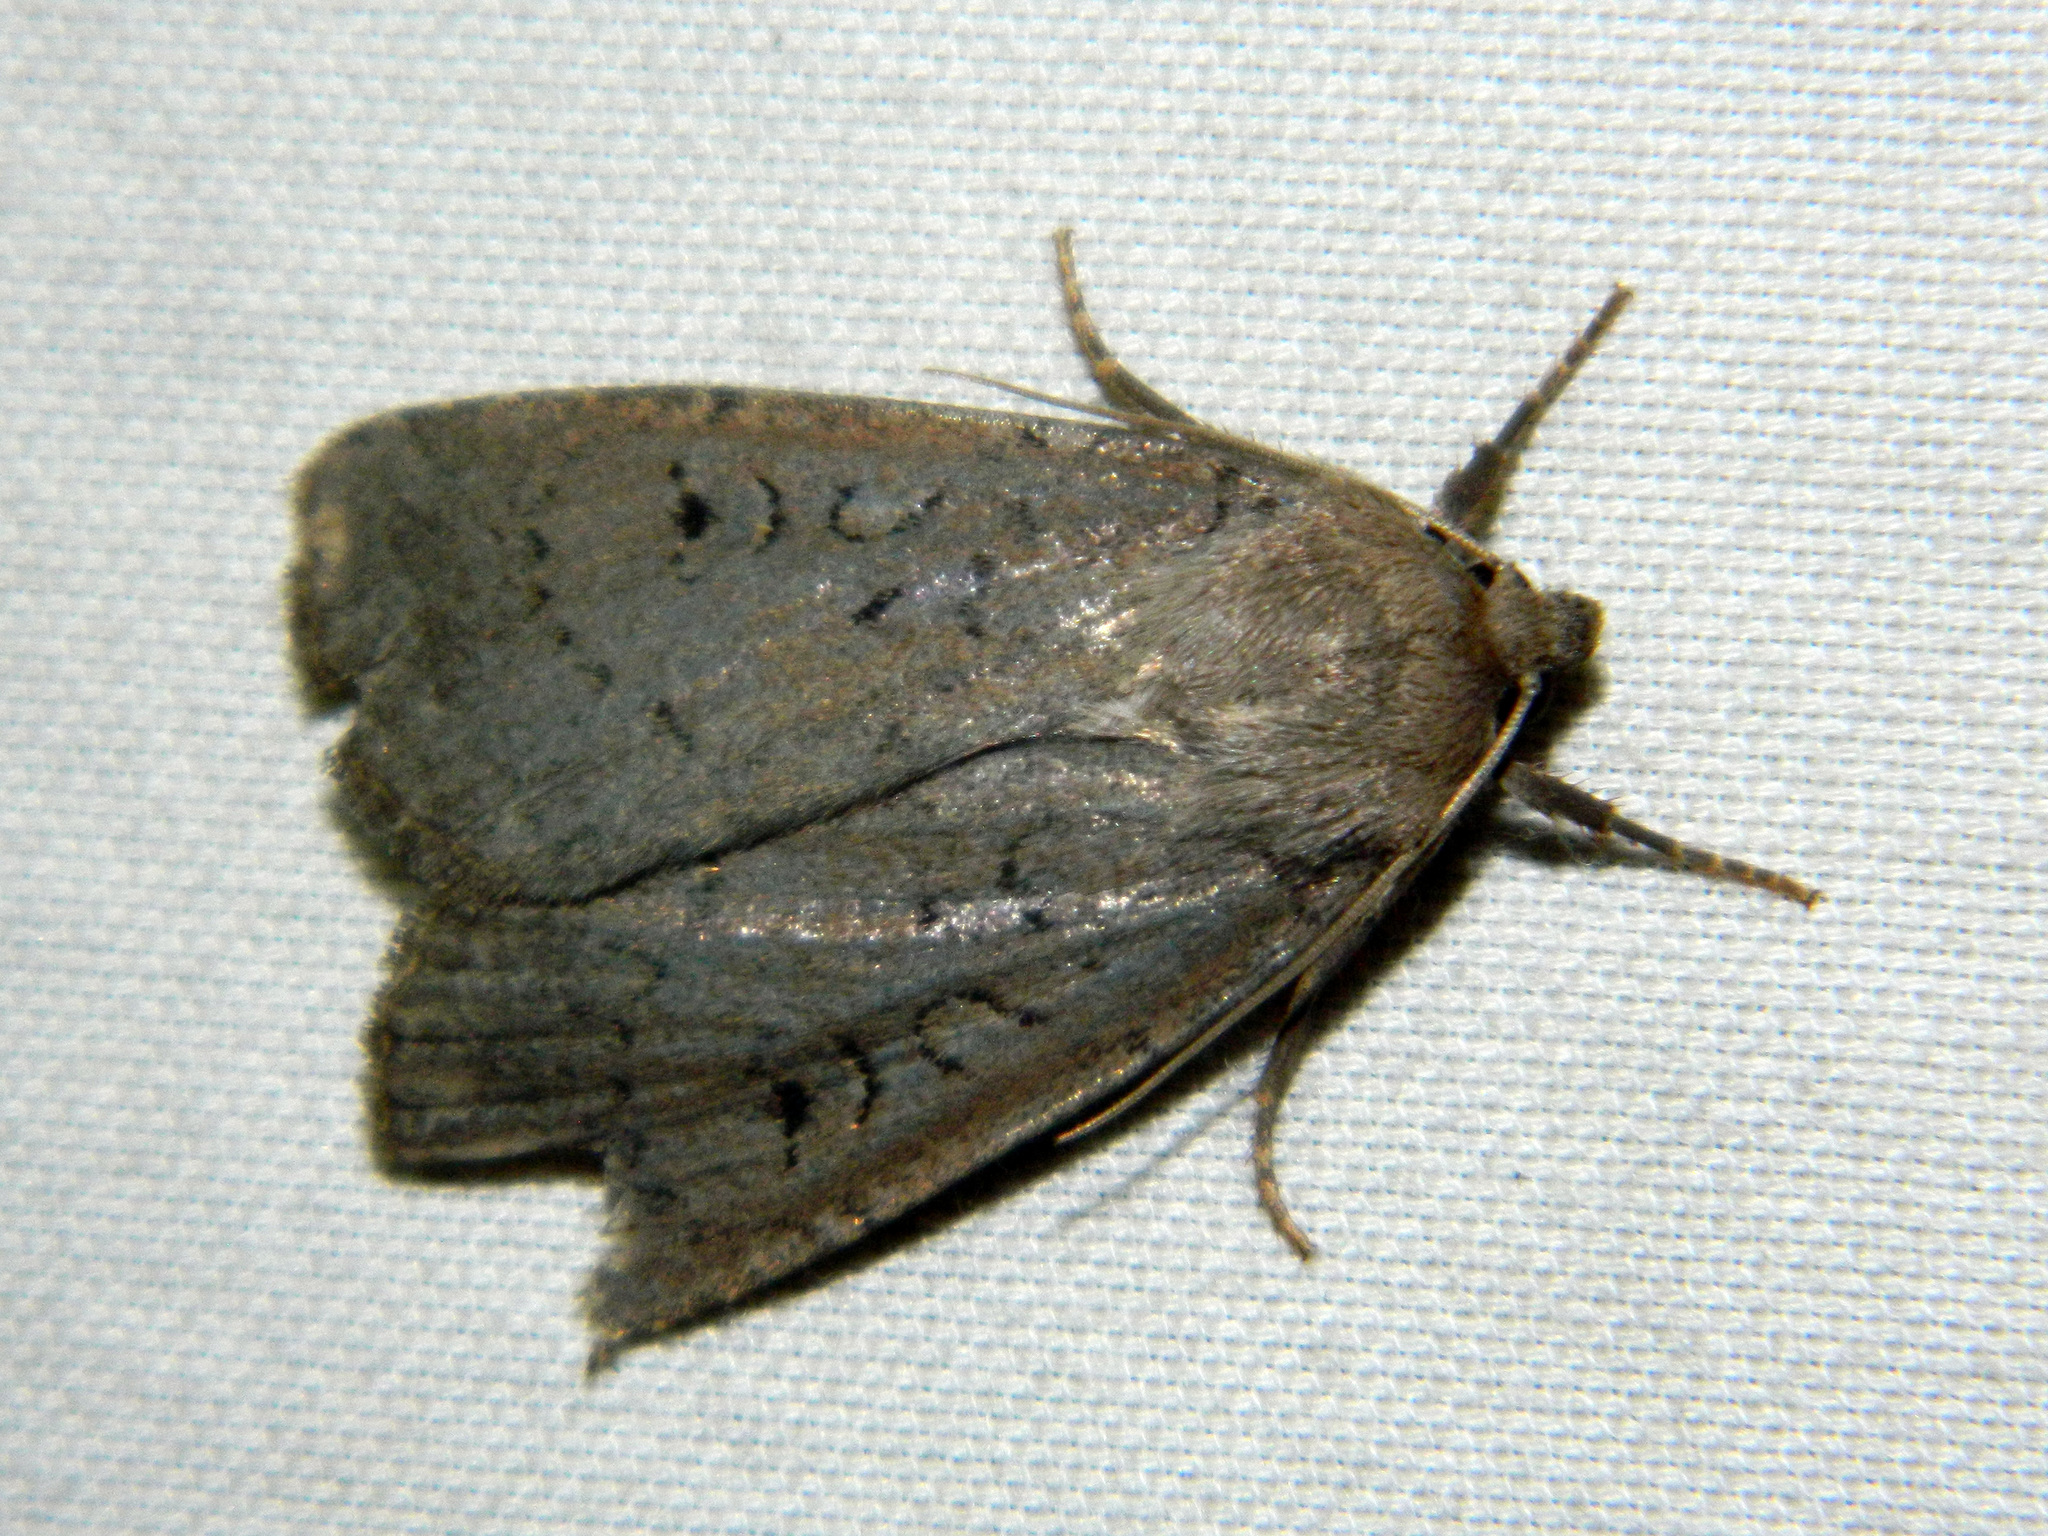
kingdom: Animalia
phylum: Arthropoda
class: Insecta
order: Lepidoptera
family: Noctuidae
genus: Graphiphora
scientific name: Graphiphora augur
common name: Double dart
